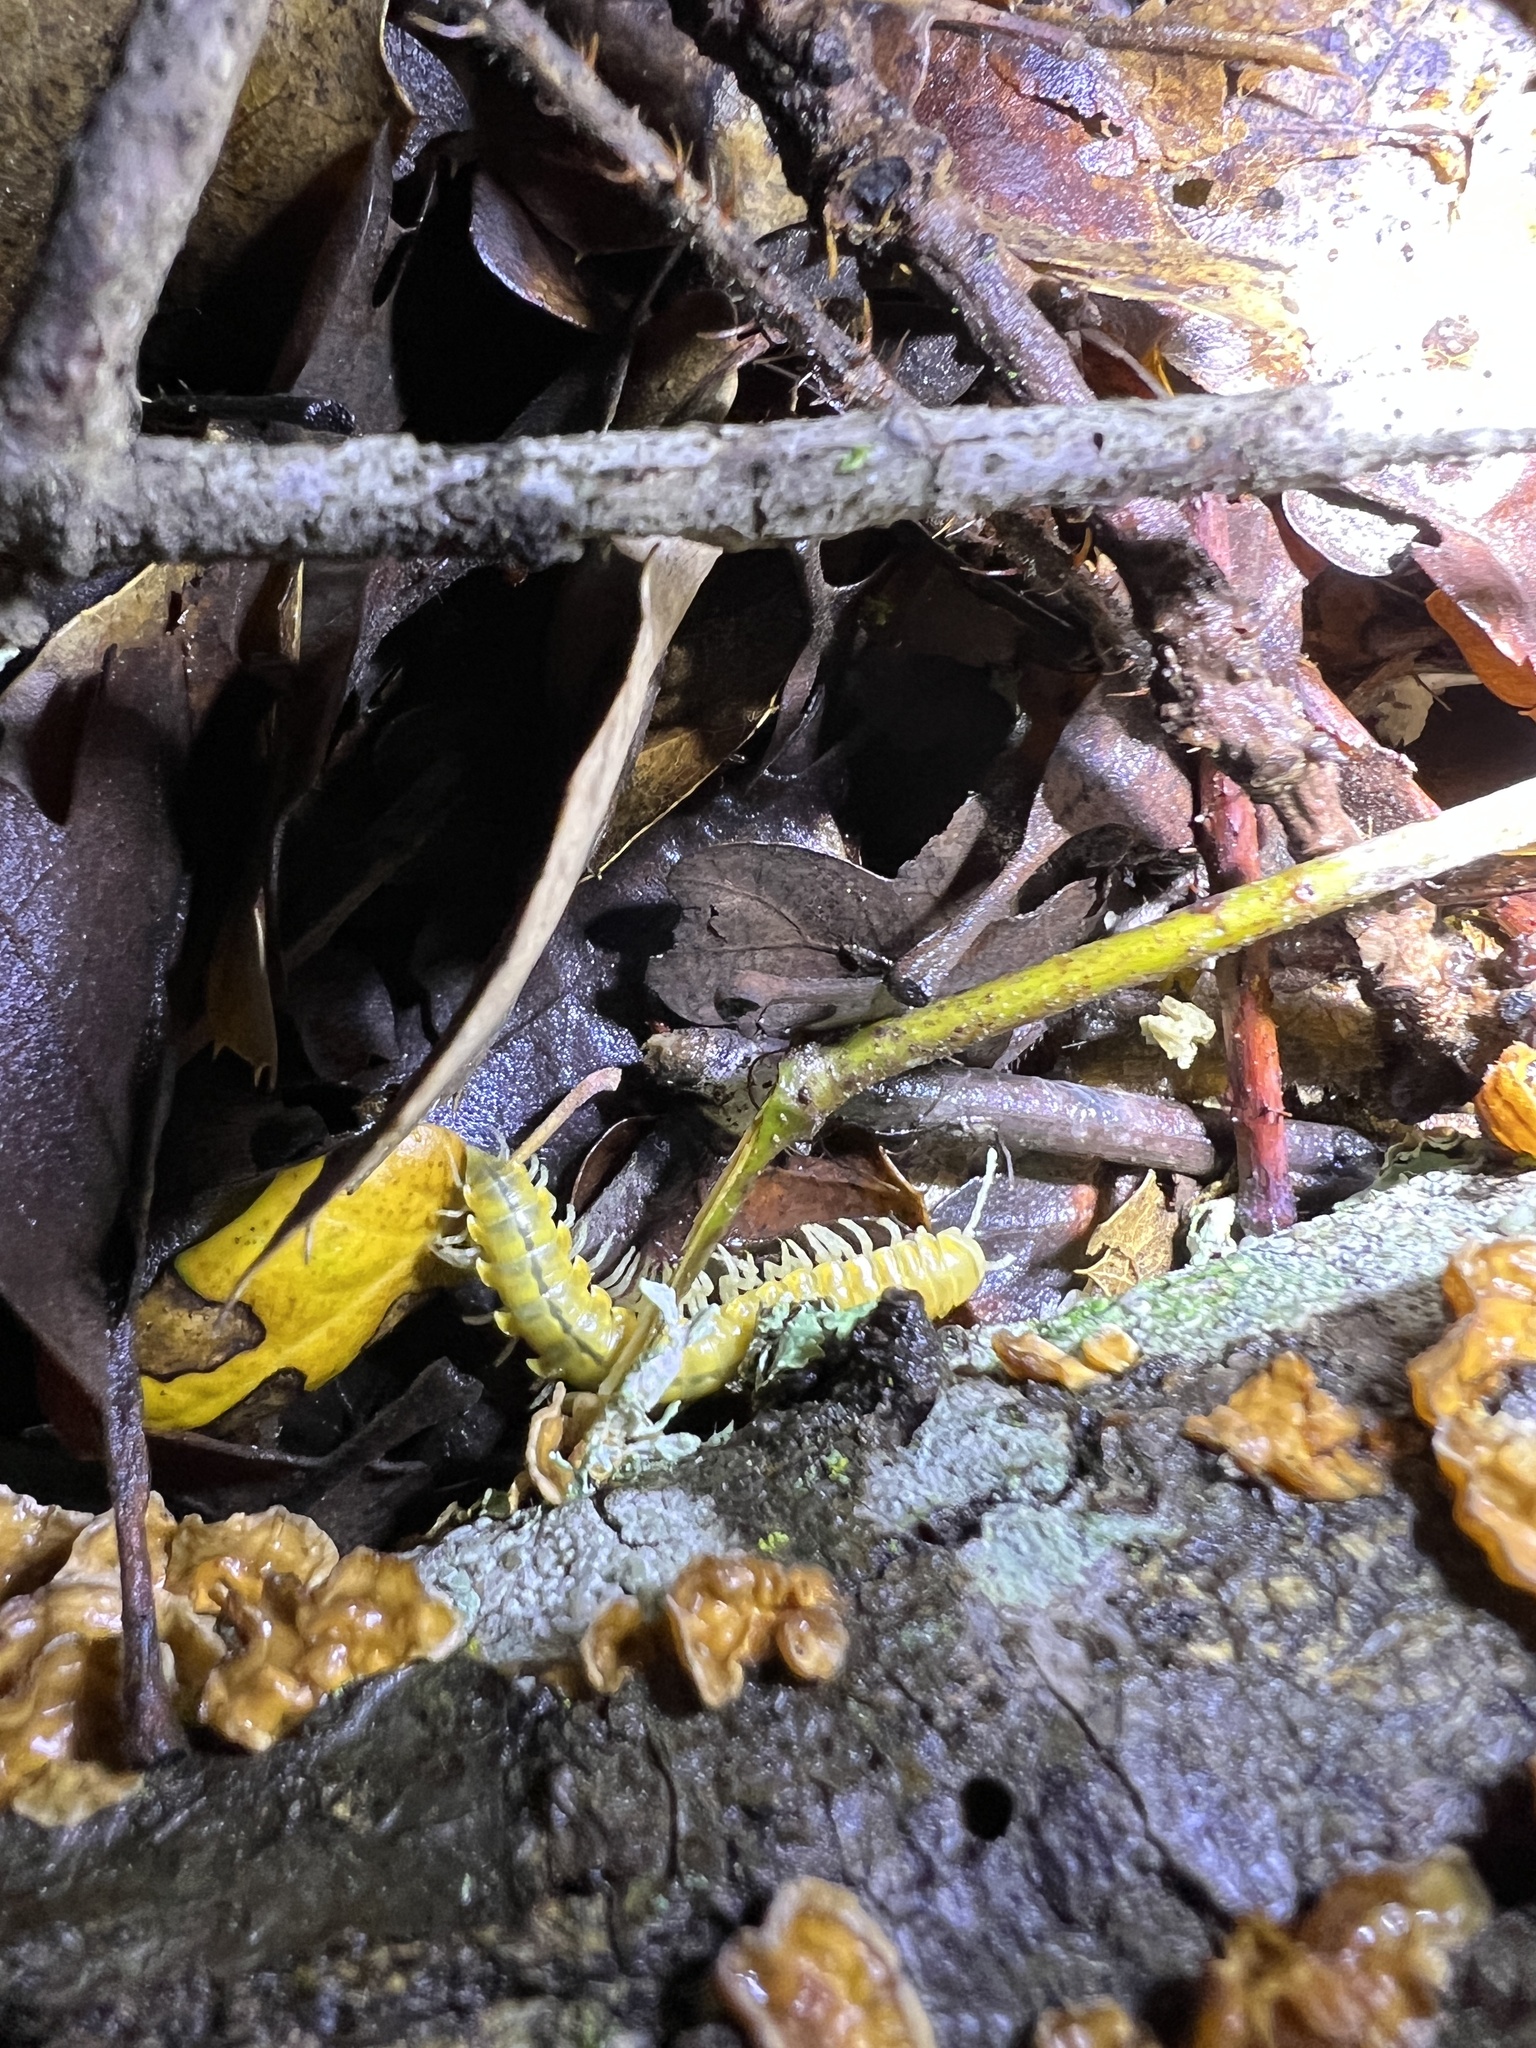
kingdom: Animalia
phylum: Arthropoda
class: Diplopoda
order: Polydesmida
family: Xystodesmidae
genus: Xystocheir
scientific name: Xystocheir dissecta
